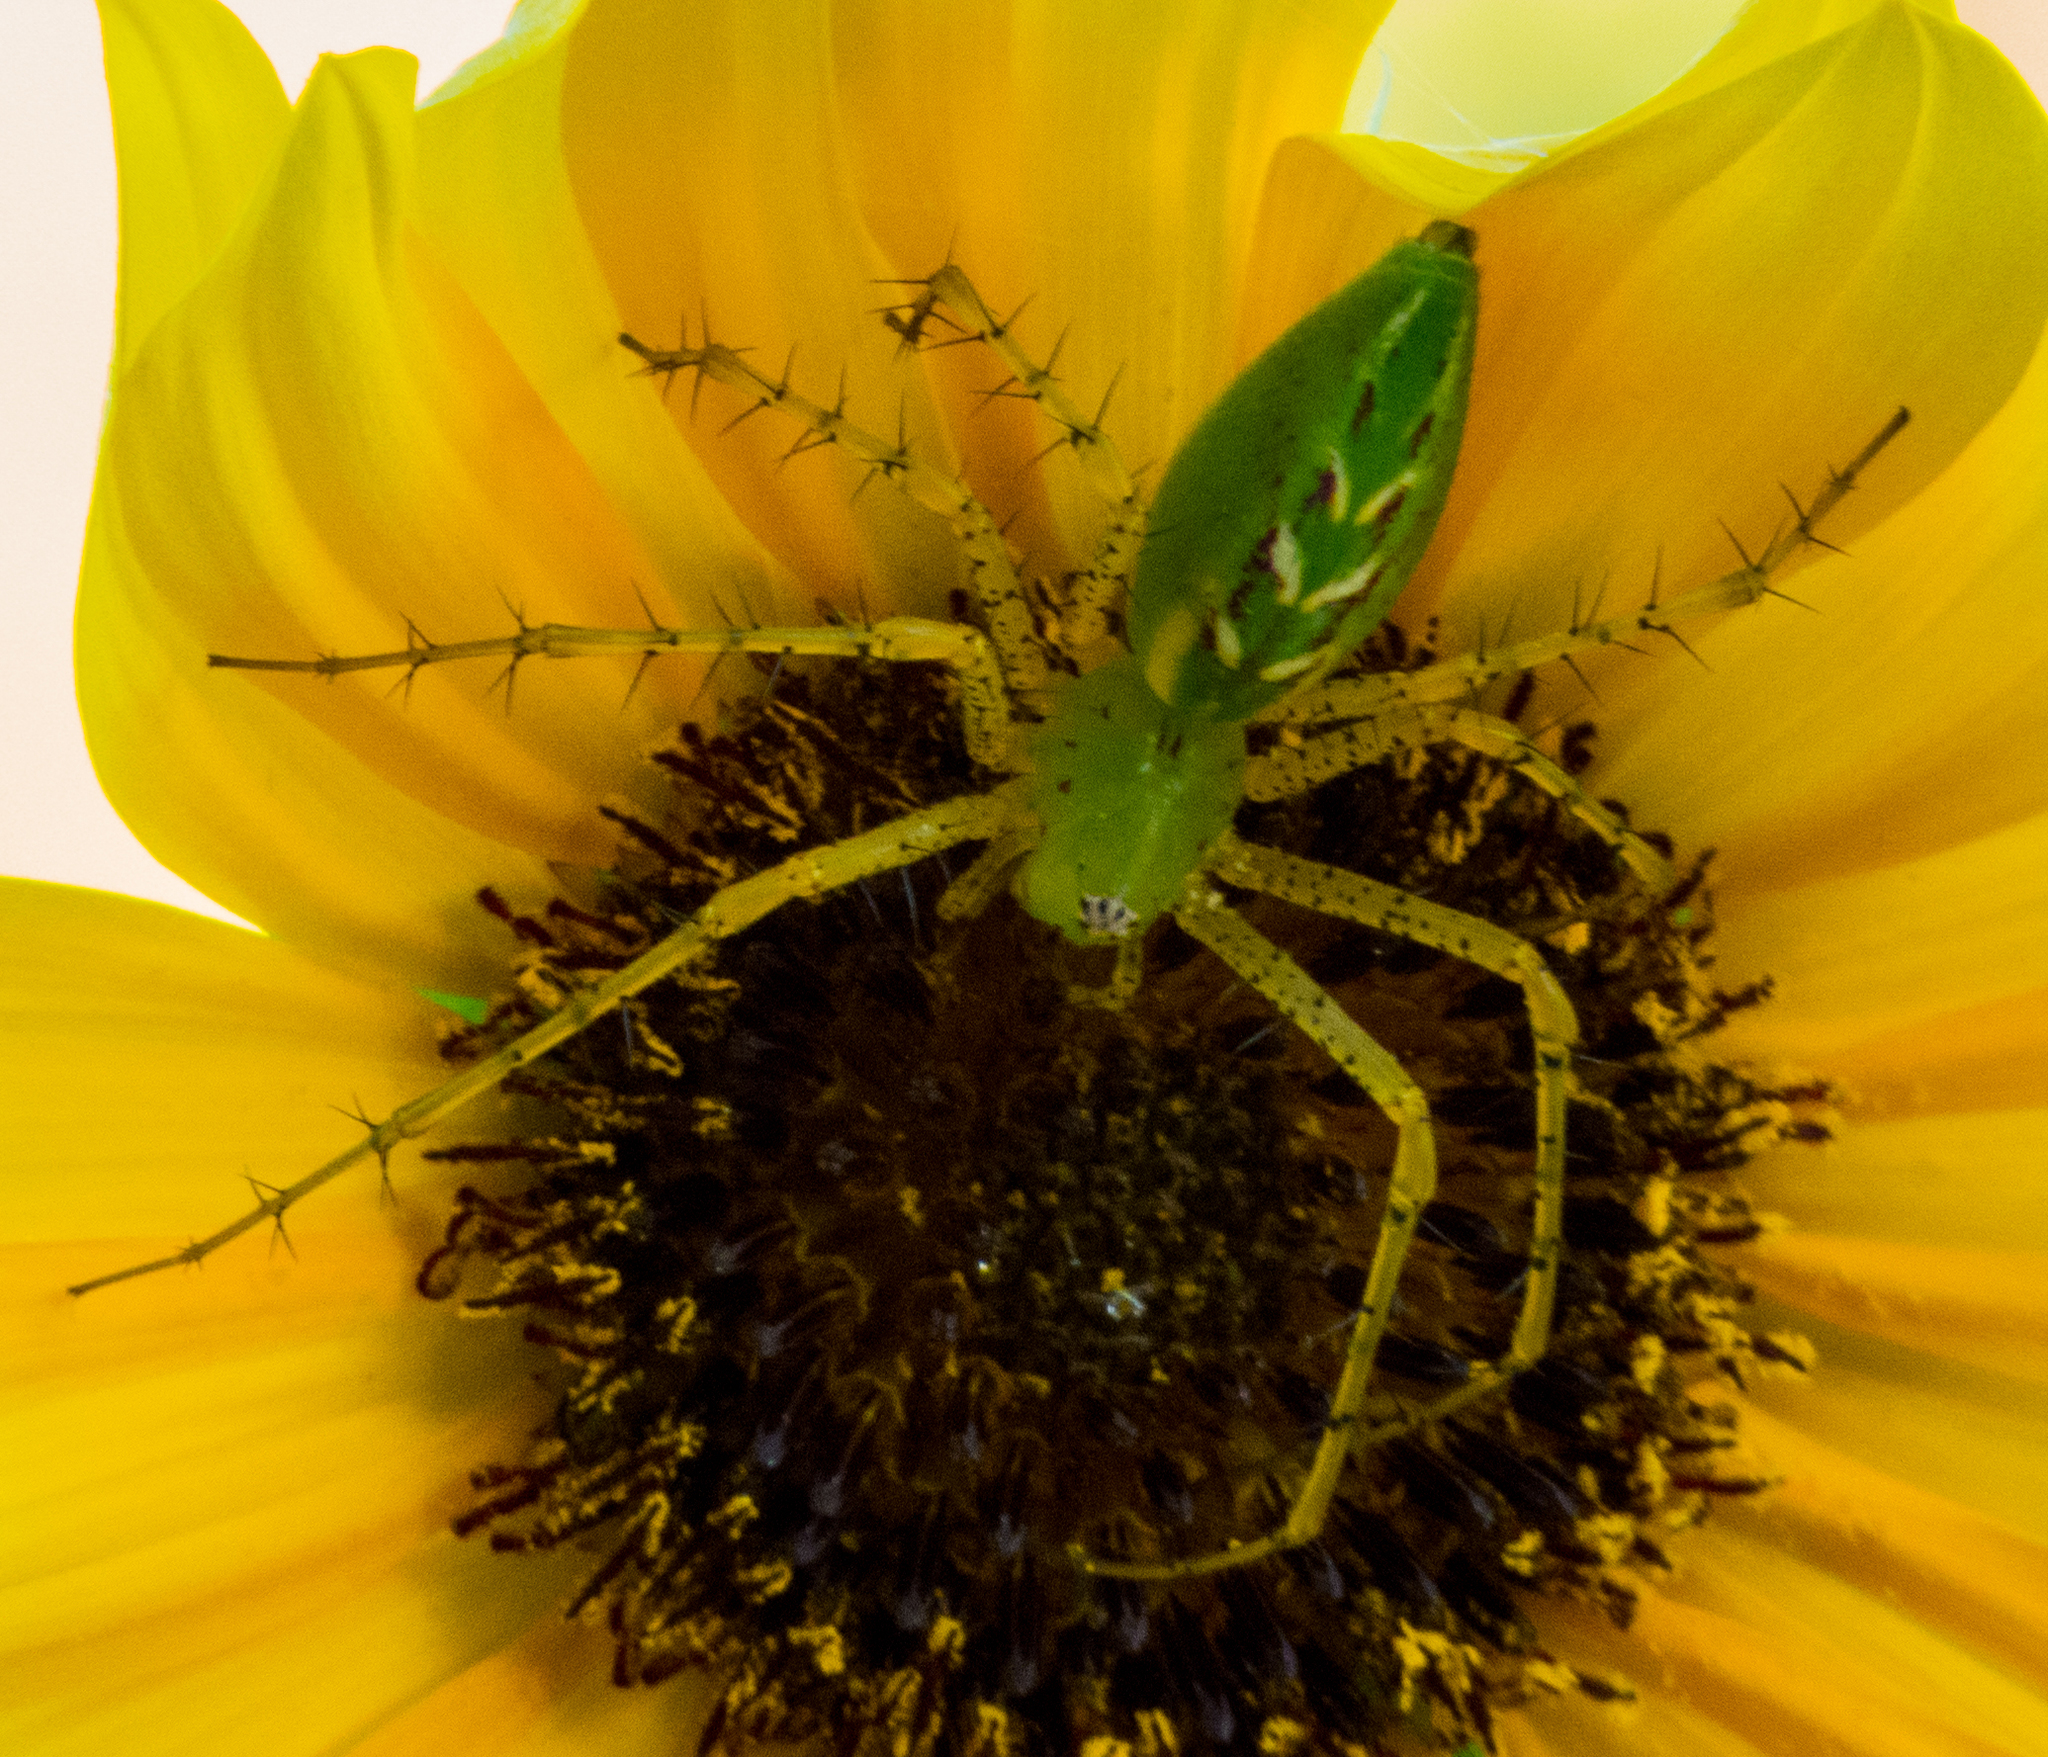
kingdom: Animalia
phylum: Arthropoda
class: Arachnida
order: Araneae
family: Oxyopidae
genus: Peucetia
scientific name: Peucetia viridans
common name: Lynx spiders
